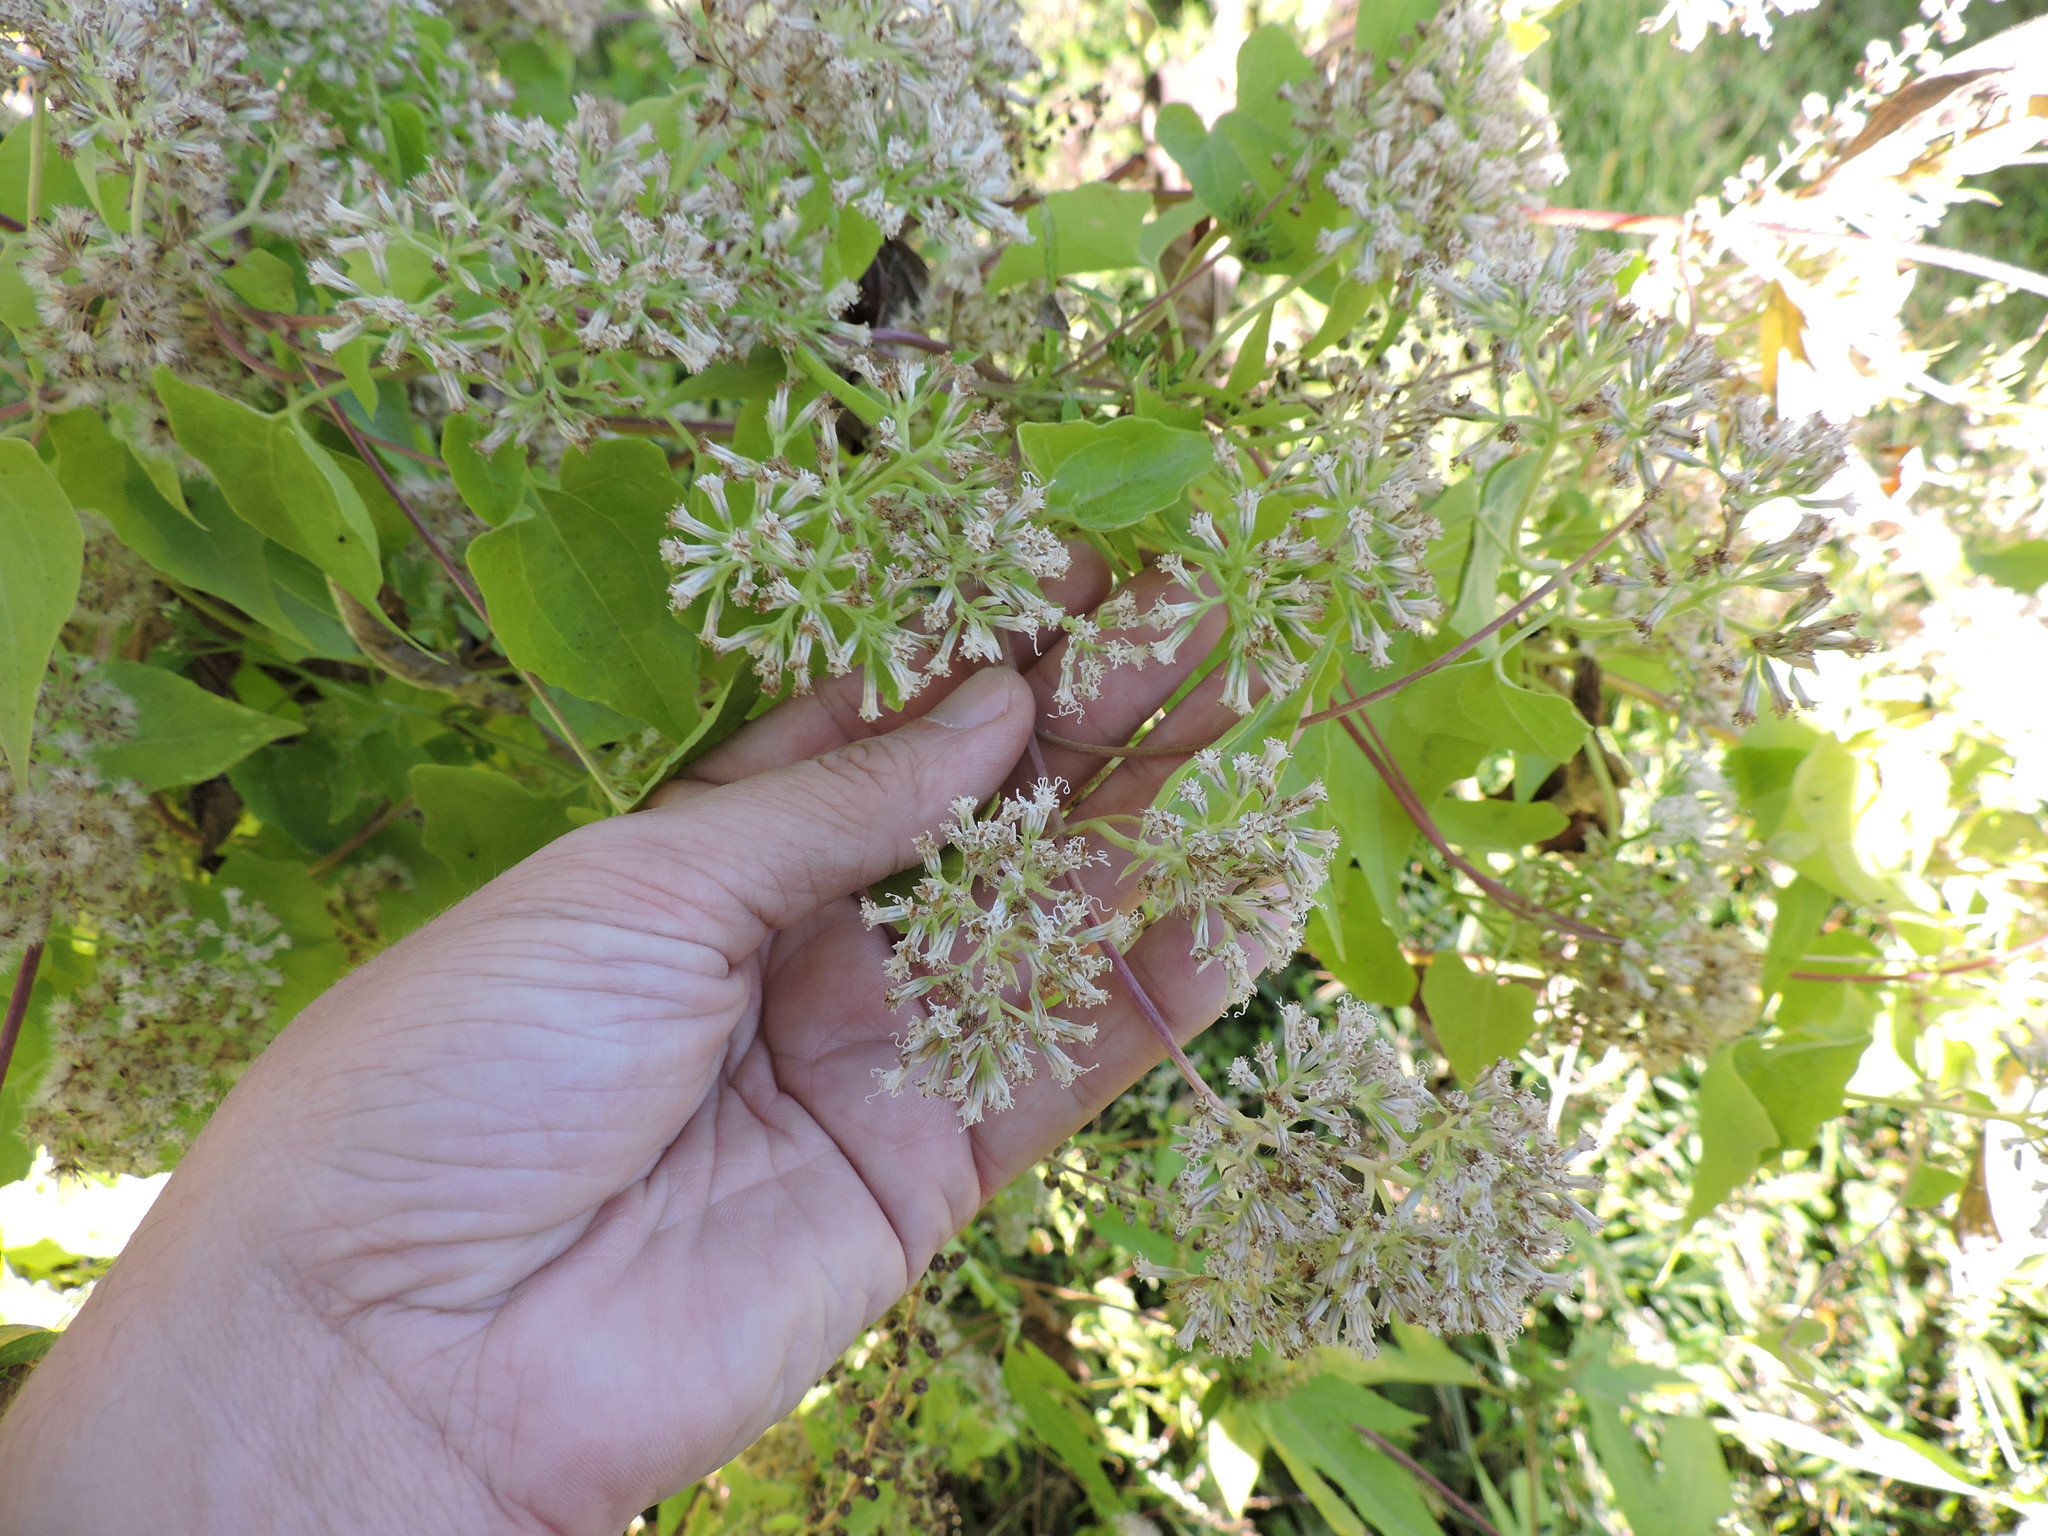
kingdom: Plantae
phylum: Tracheophyta
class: Magnoliopsida
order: Asterales
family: Asteraceae
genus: Mikania
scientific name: Mikania scandens
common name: Climbing hempvine
